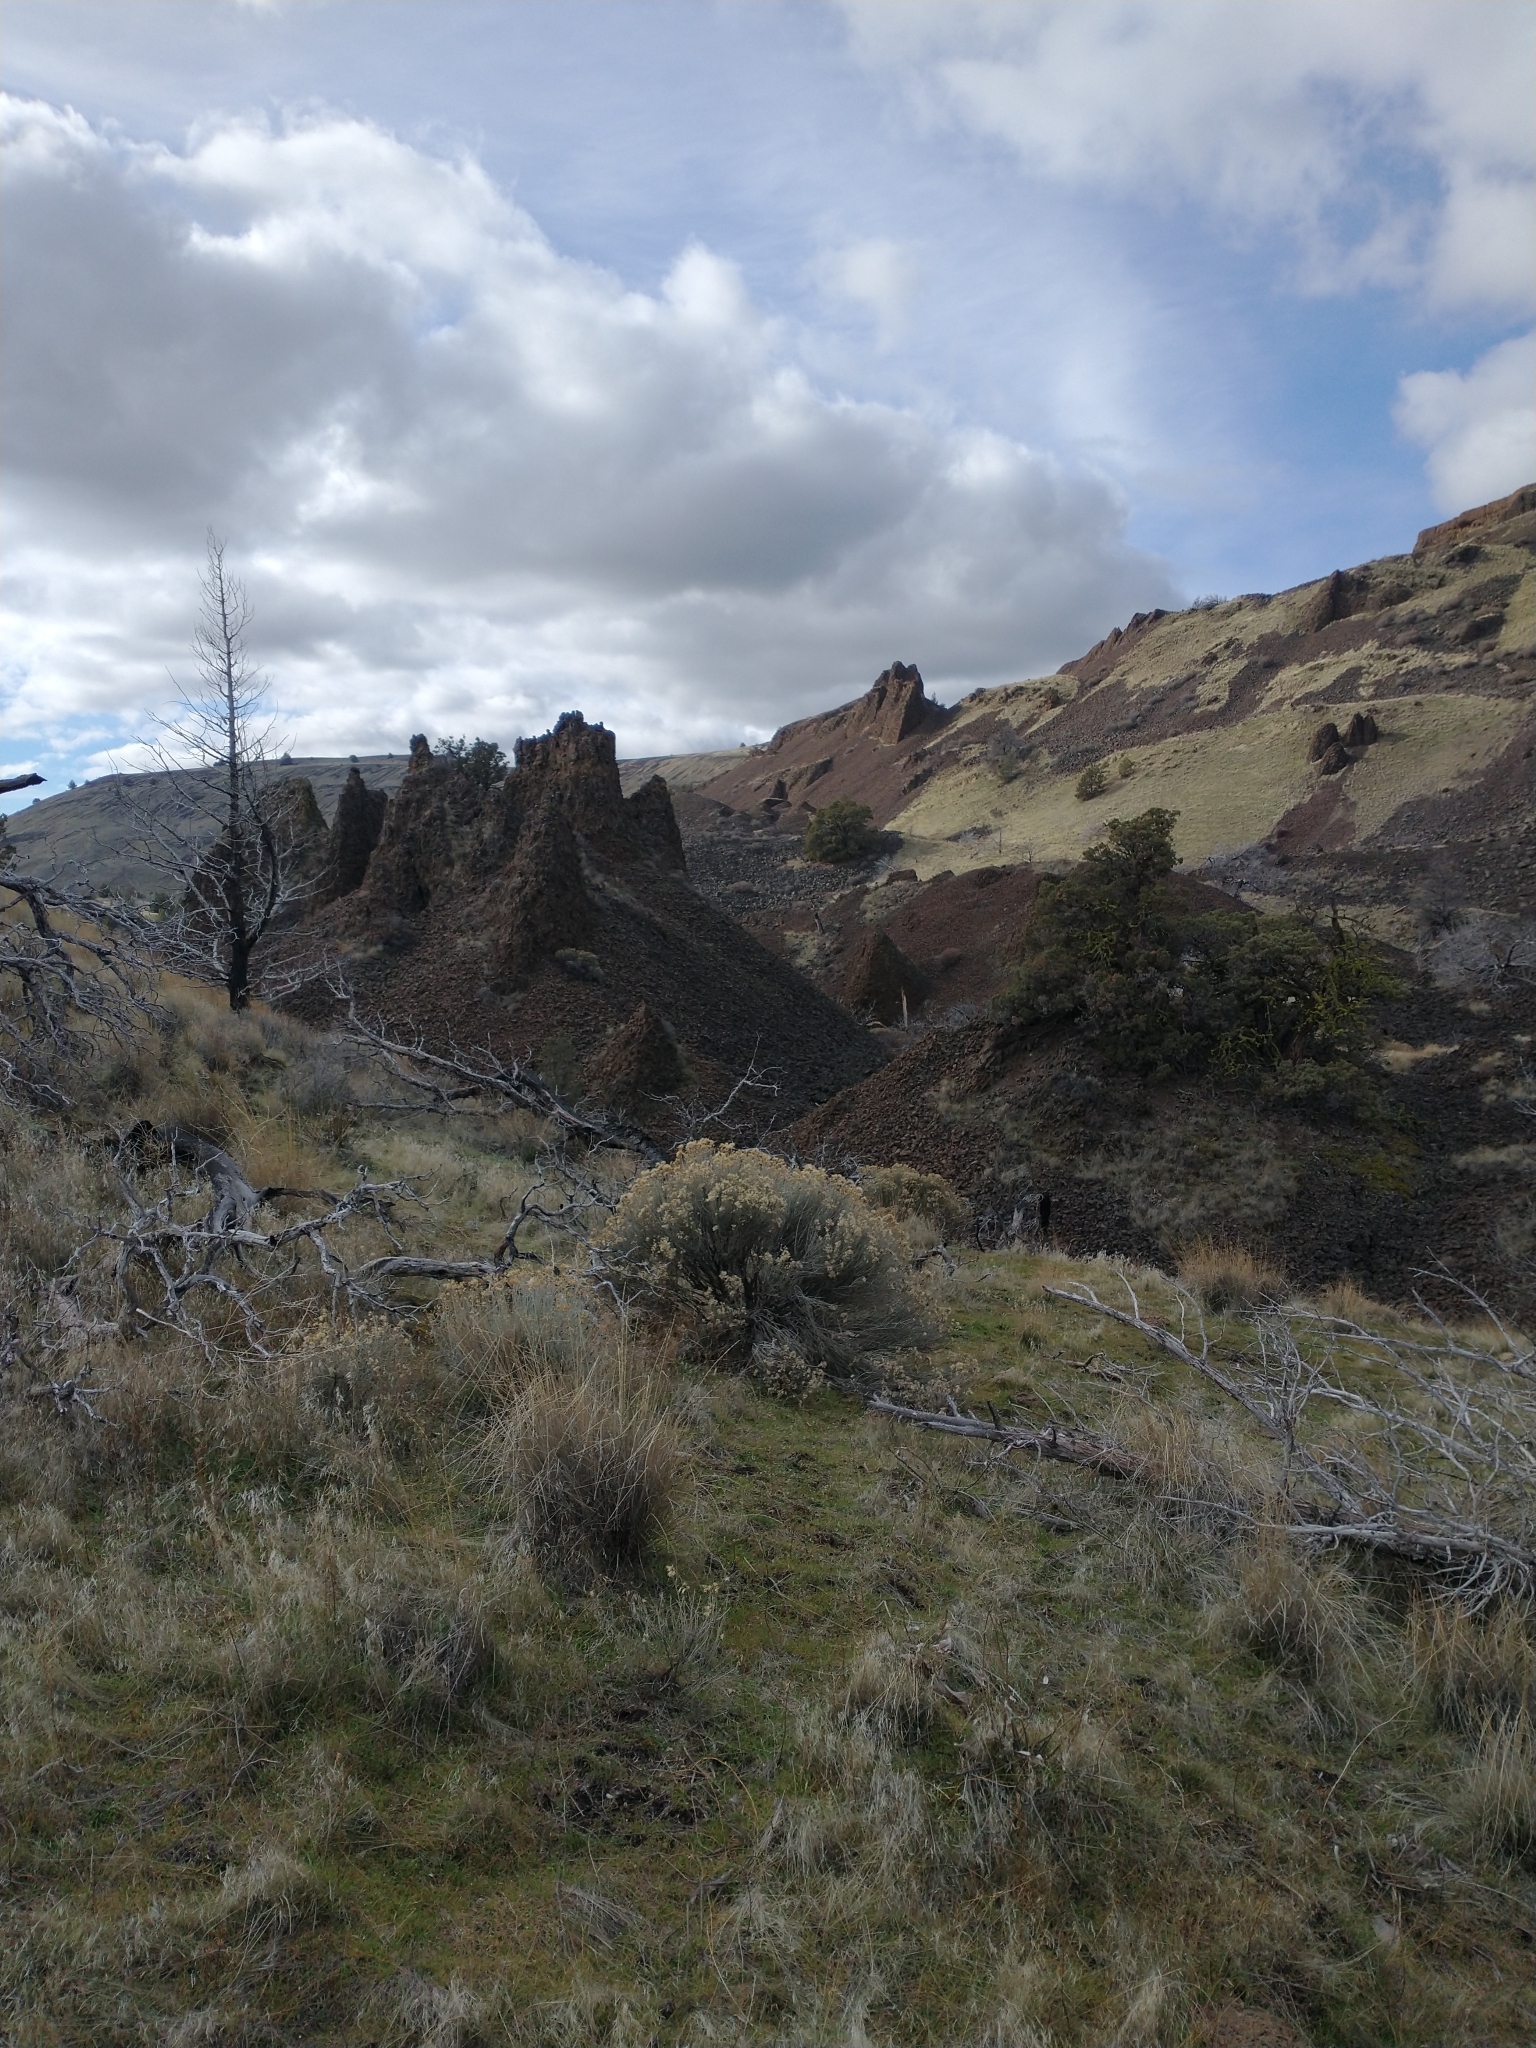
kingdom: Plantae
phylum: Tracheophyta
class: Magnoliopsida
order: Asterales
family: Asteraceae
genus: Ericameria
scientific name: Ericameria nauseosa
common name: Rubber rabbitbrush
